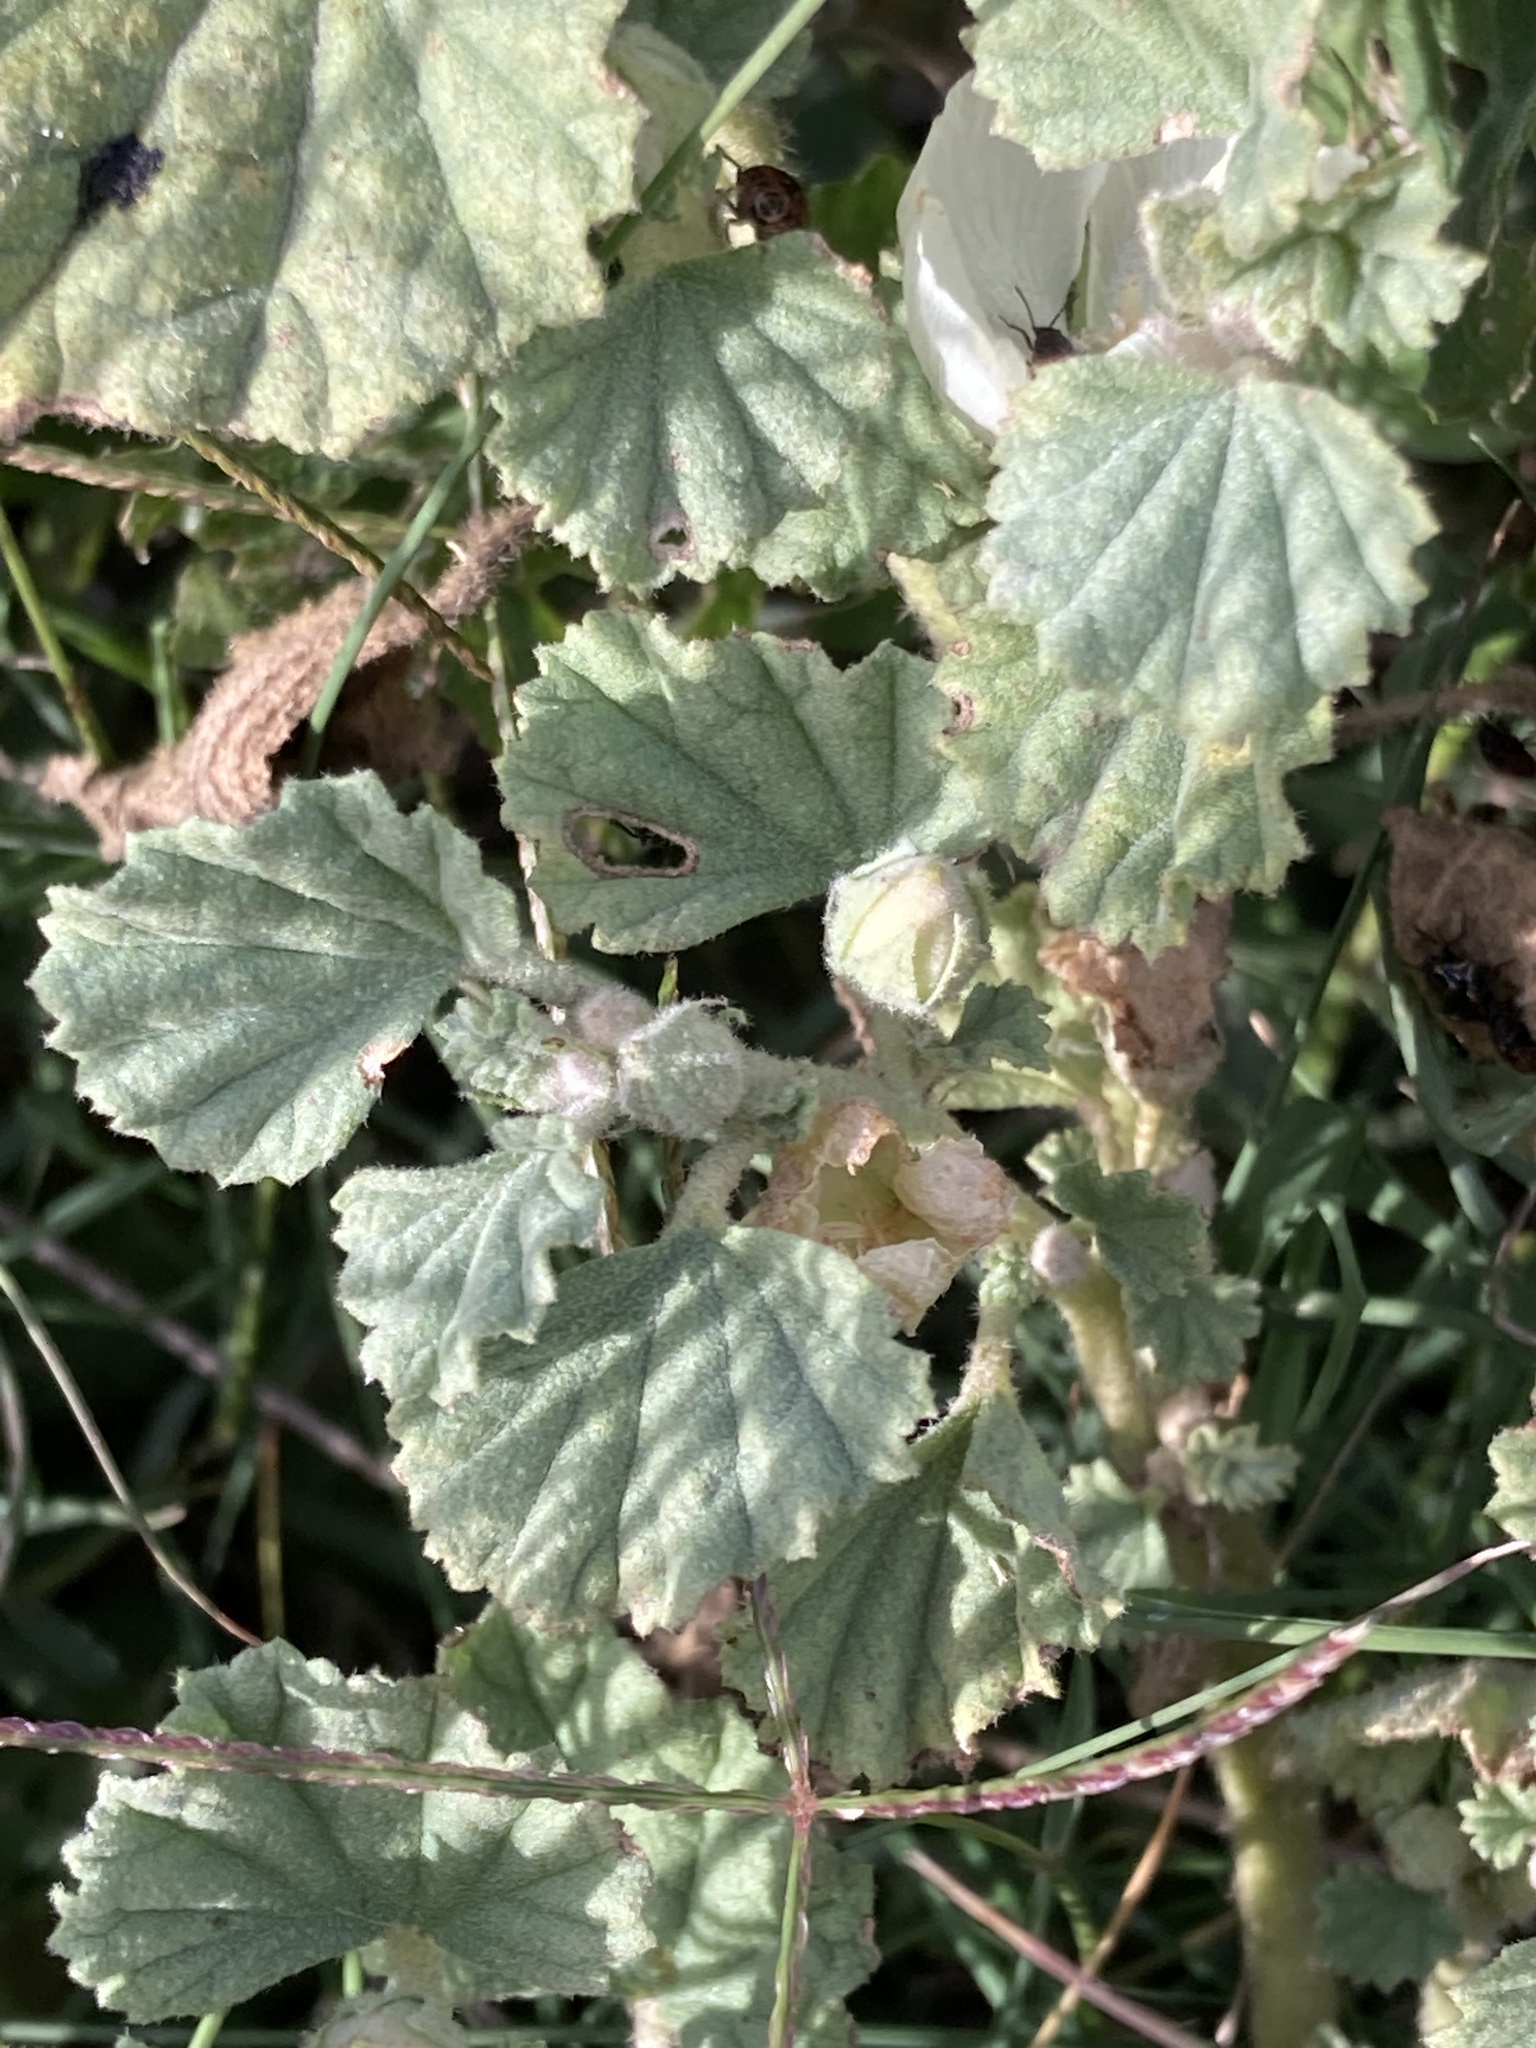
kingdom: Plantae
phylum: Tracheophyta
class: Magnoliopsida
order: Malvales
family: Malvaceae
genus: Malvella
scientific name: Malvella leprosa
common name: Alkali-mallow
